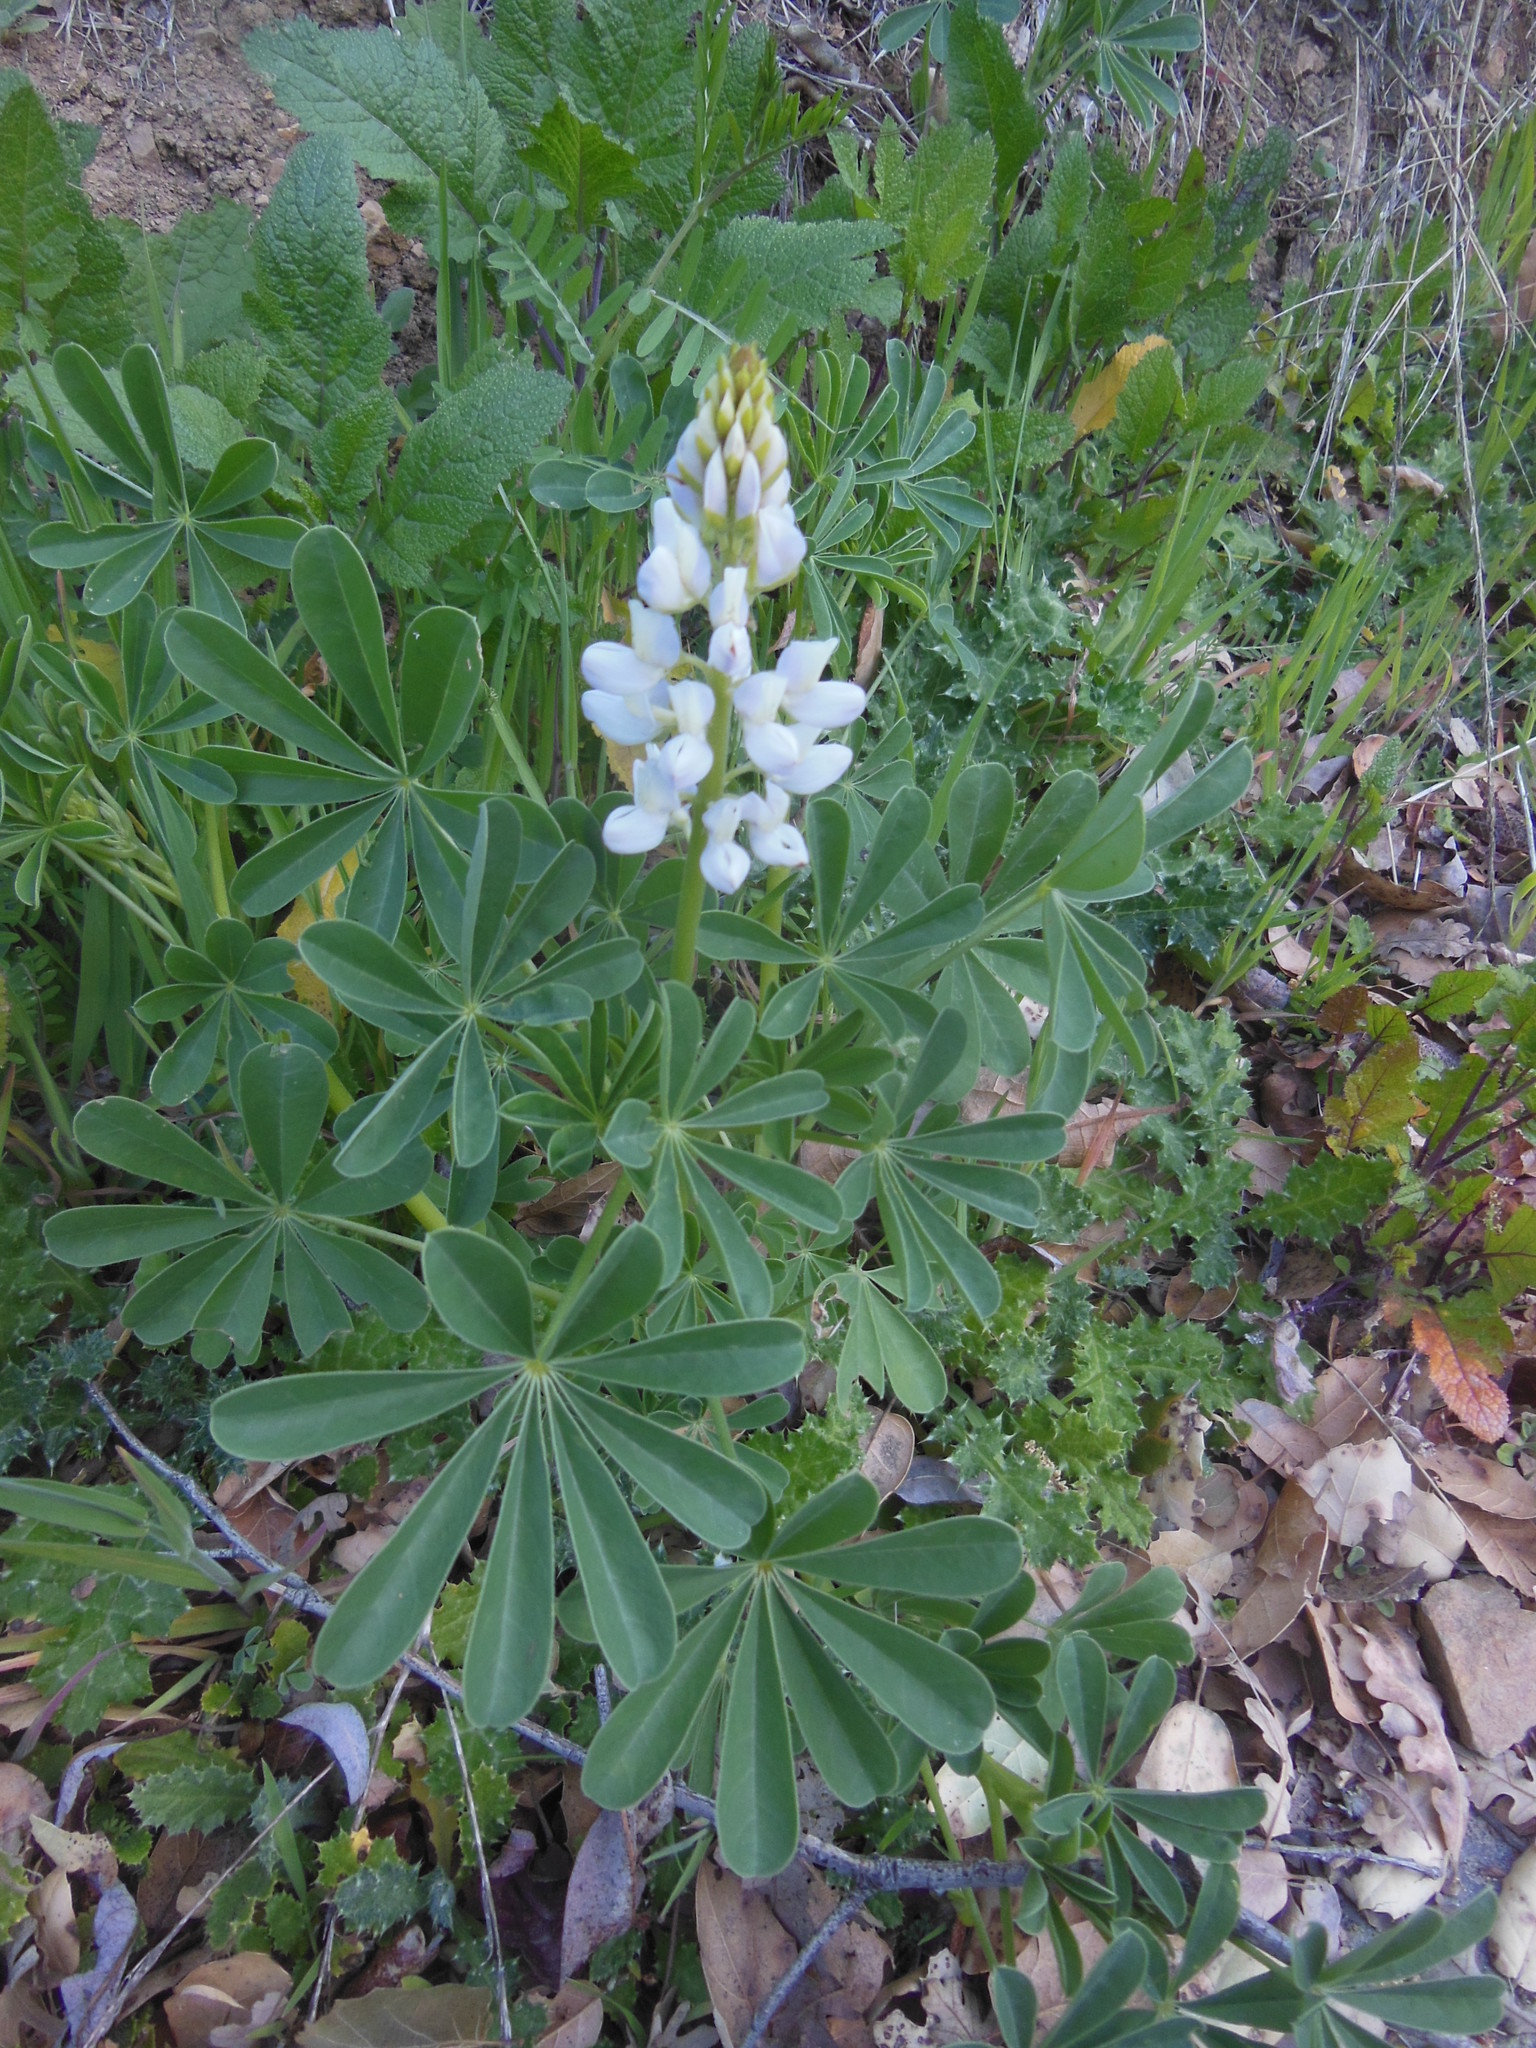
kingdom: Plantae
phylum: Tracheophyta
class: Magnoliopsida
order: Fabales
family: Fabaceae
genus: Lupinus
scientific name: Lupinus succulentus
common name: Arroyo lupine
